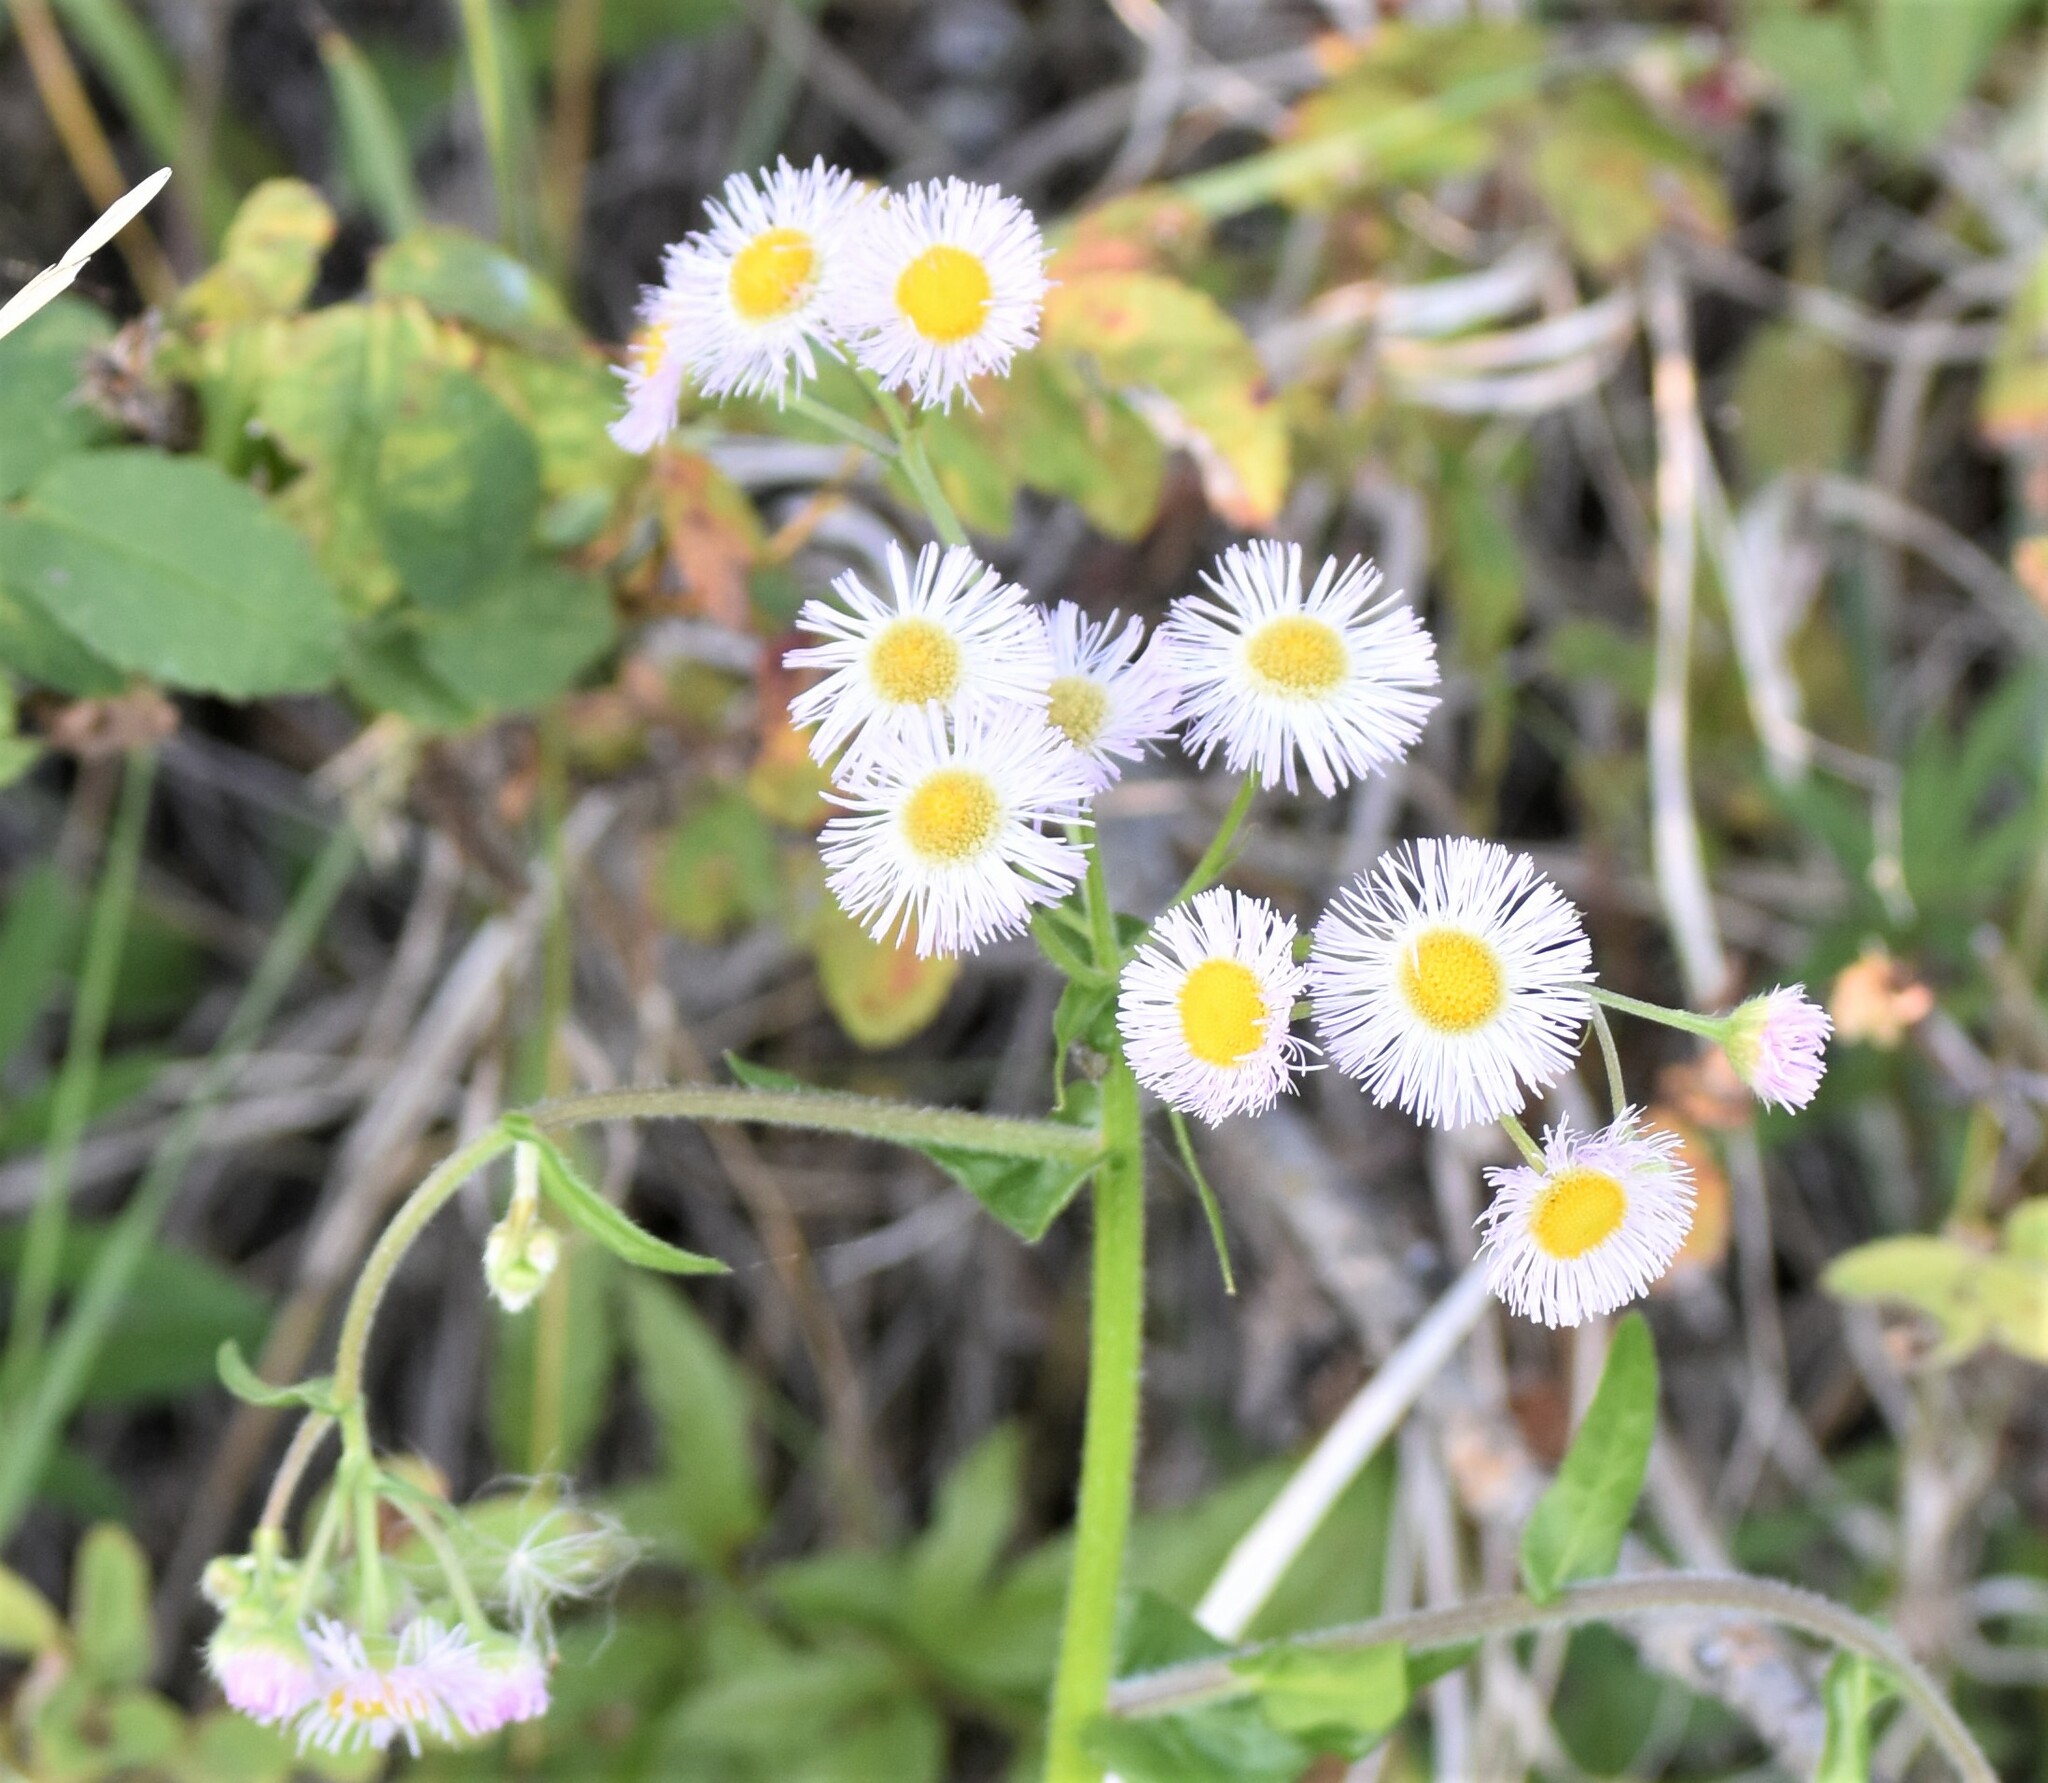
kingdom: Plantae
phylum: Tracheophyta
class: Magnoliopsida
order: Asterales
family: Asteraceae
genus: Erigeron
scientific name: Erigeron philadelphicus
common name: Robin's-plantain
